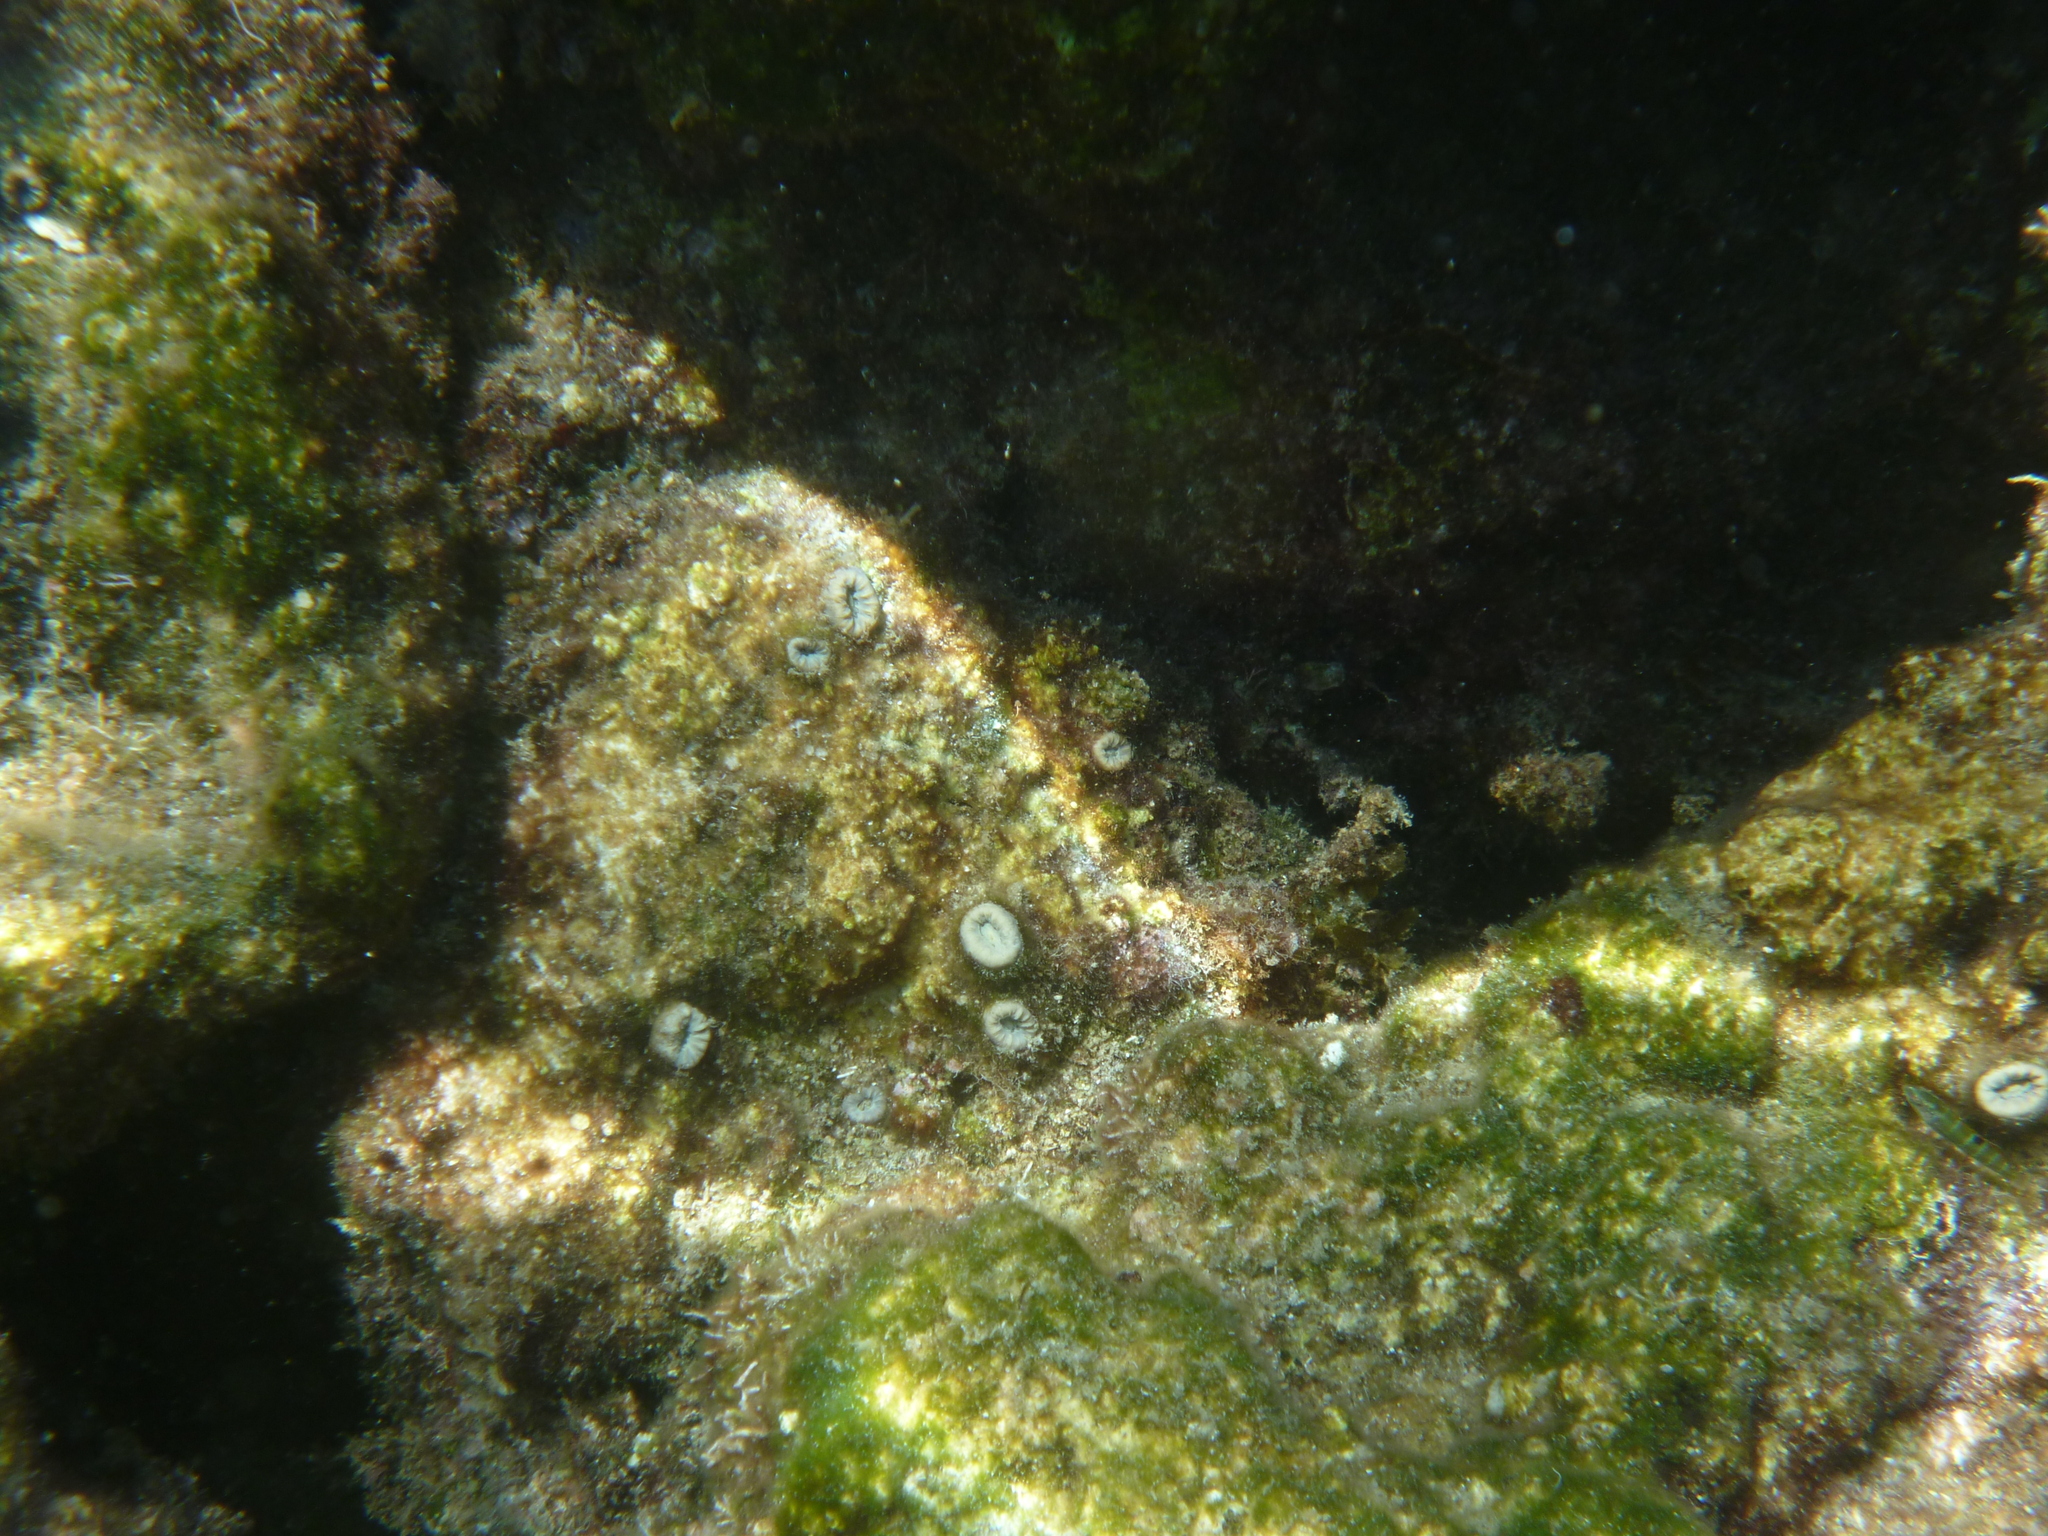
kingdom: Animalia
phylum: Cnidaria
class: Anthozoa
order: Scleractinia
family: Dendrophylliidae
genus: Balanophyllia
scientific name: Balanophyllia europaea
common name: Scarlet coral
